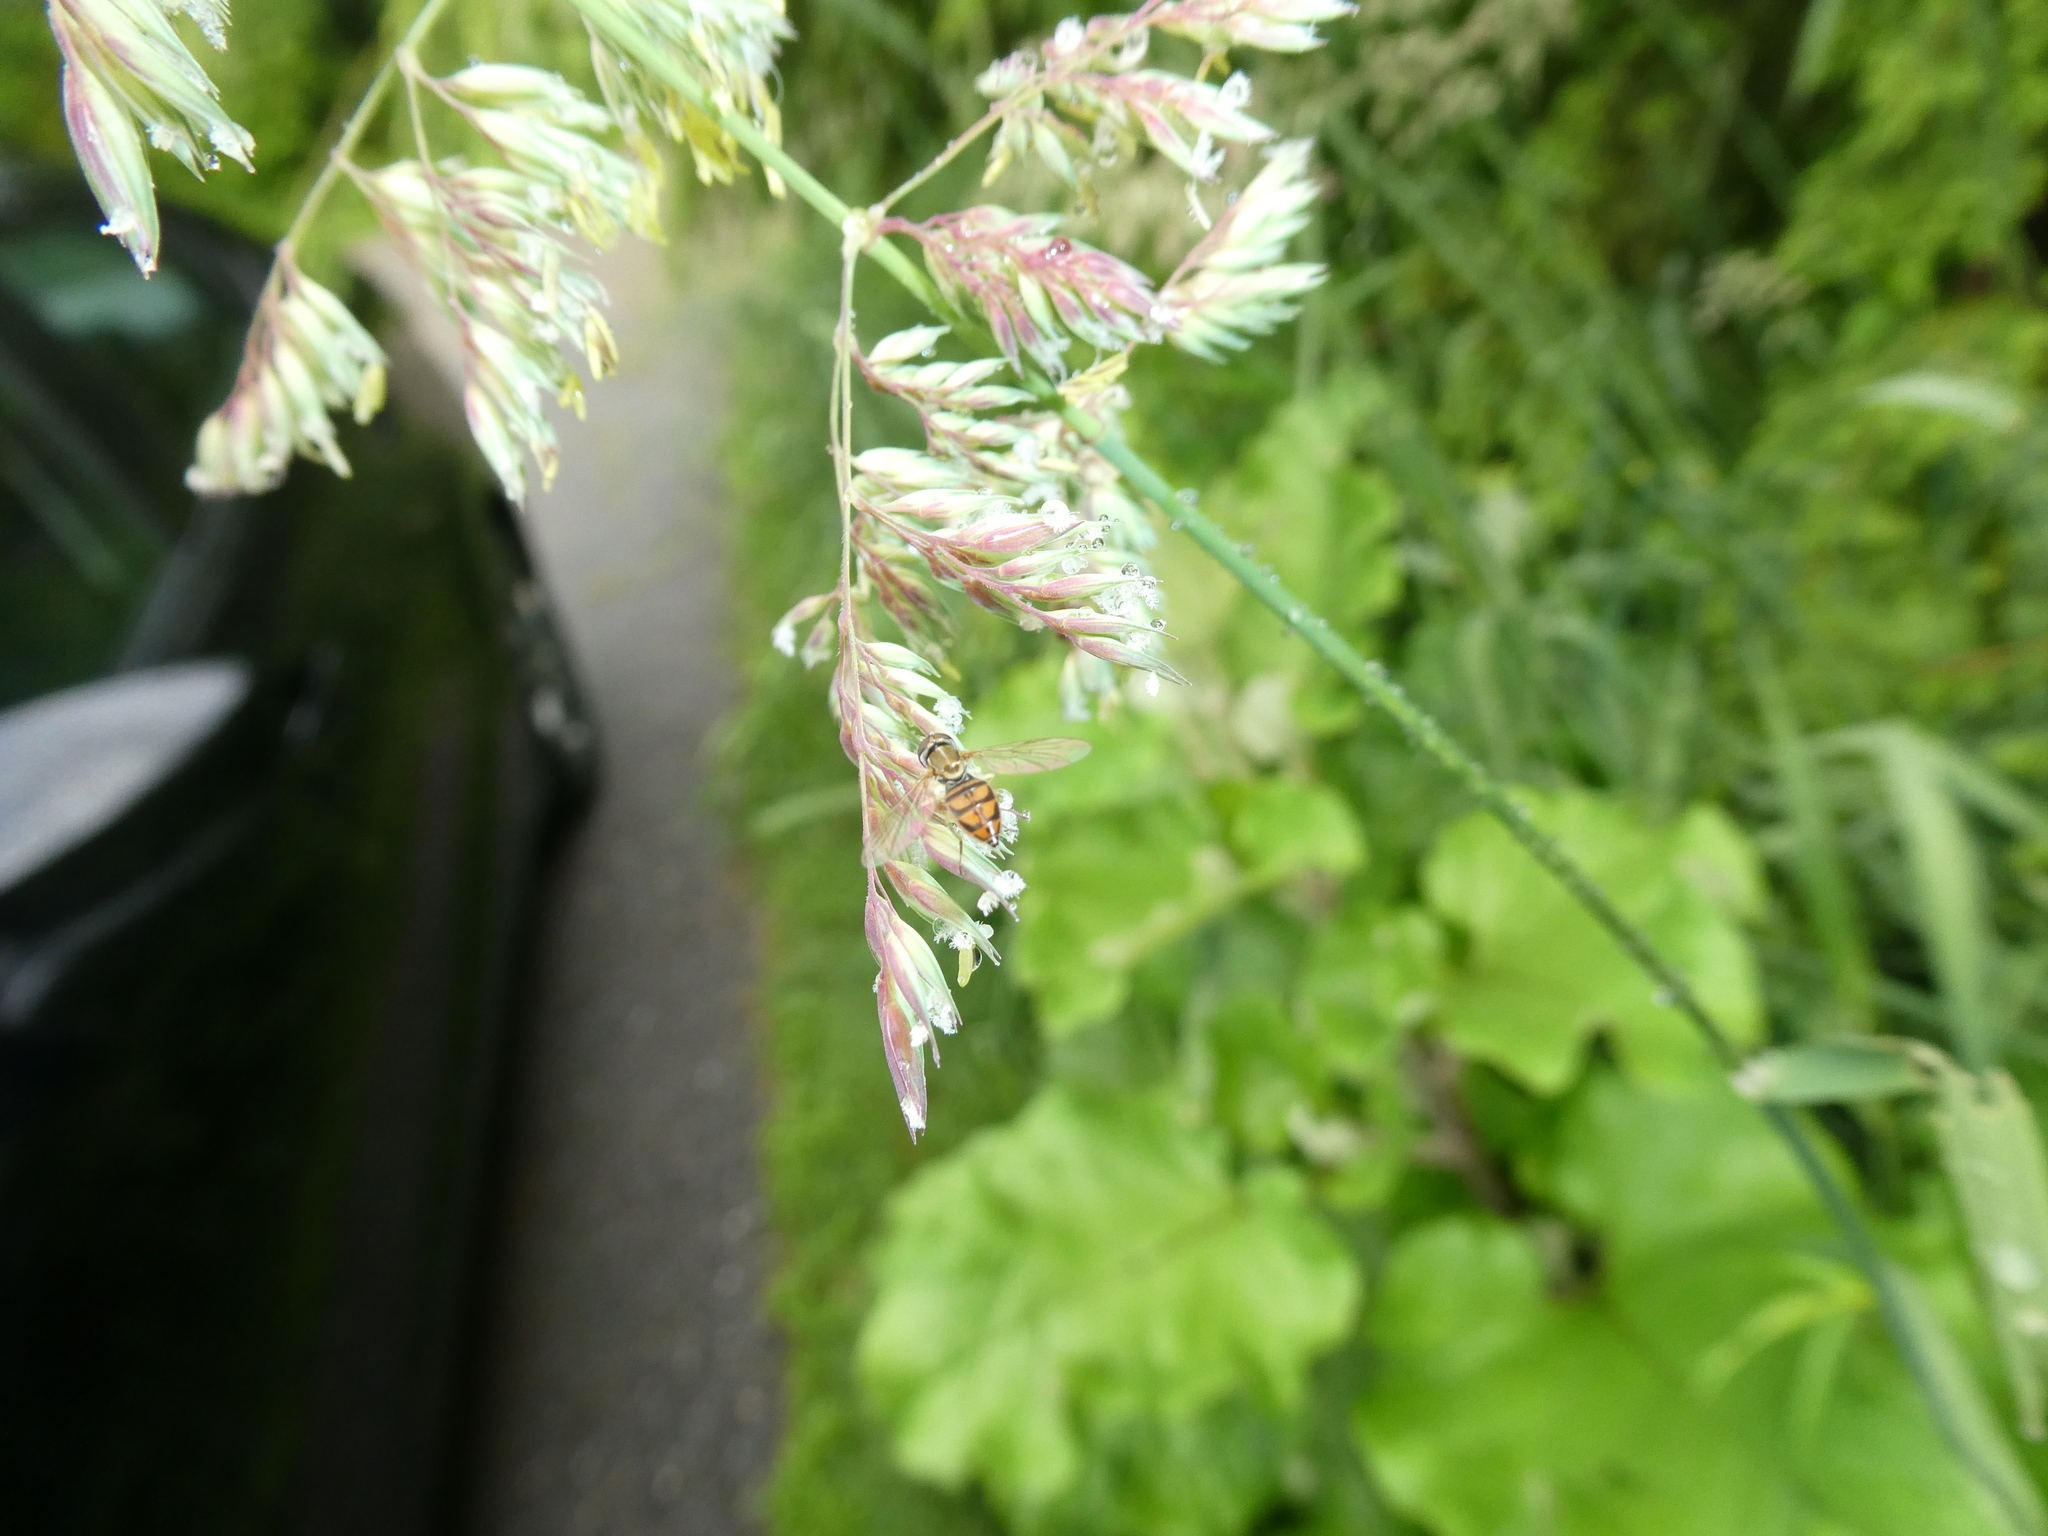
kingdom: Animalia
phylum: Arthropoda
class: Insecta
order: Diptera
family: Syrphidae
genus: Toxomerus
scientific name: Toxomerus marginatus
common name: Syrphid fly
